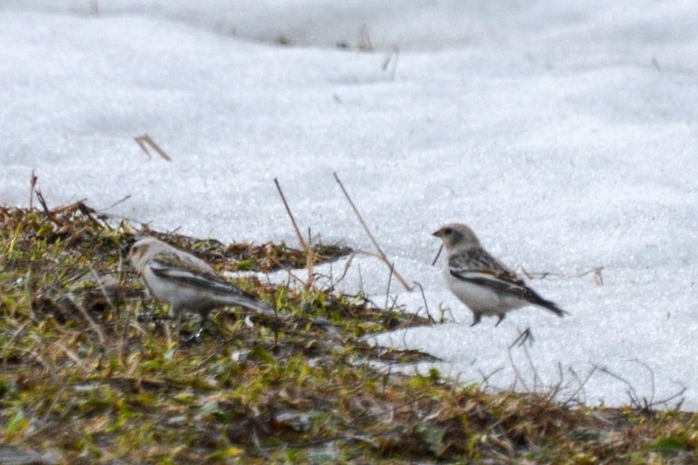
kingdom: Animalia
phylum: Chordata
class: Aves
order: Passeriformes
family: Calcariidae
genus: Plectrophenax
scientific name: Plectrophenax nivalis
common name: Snow bunting
